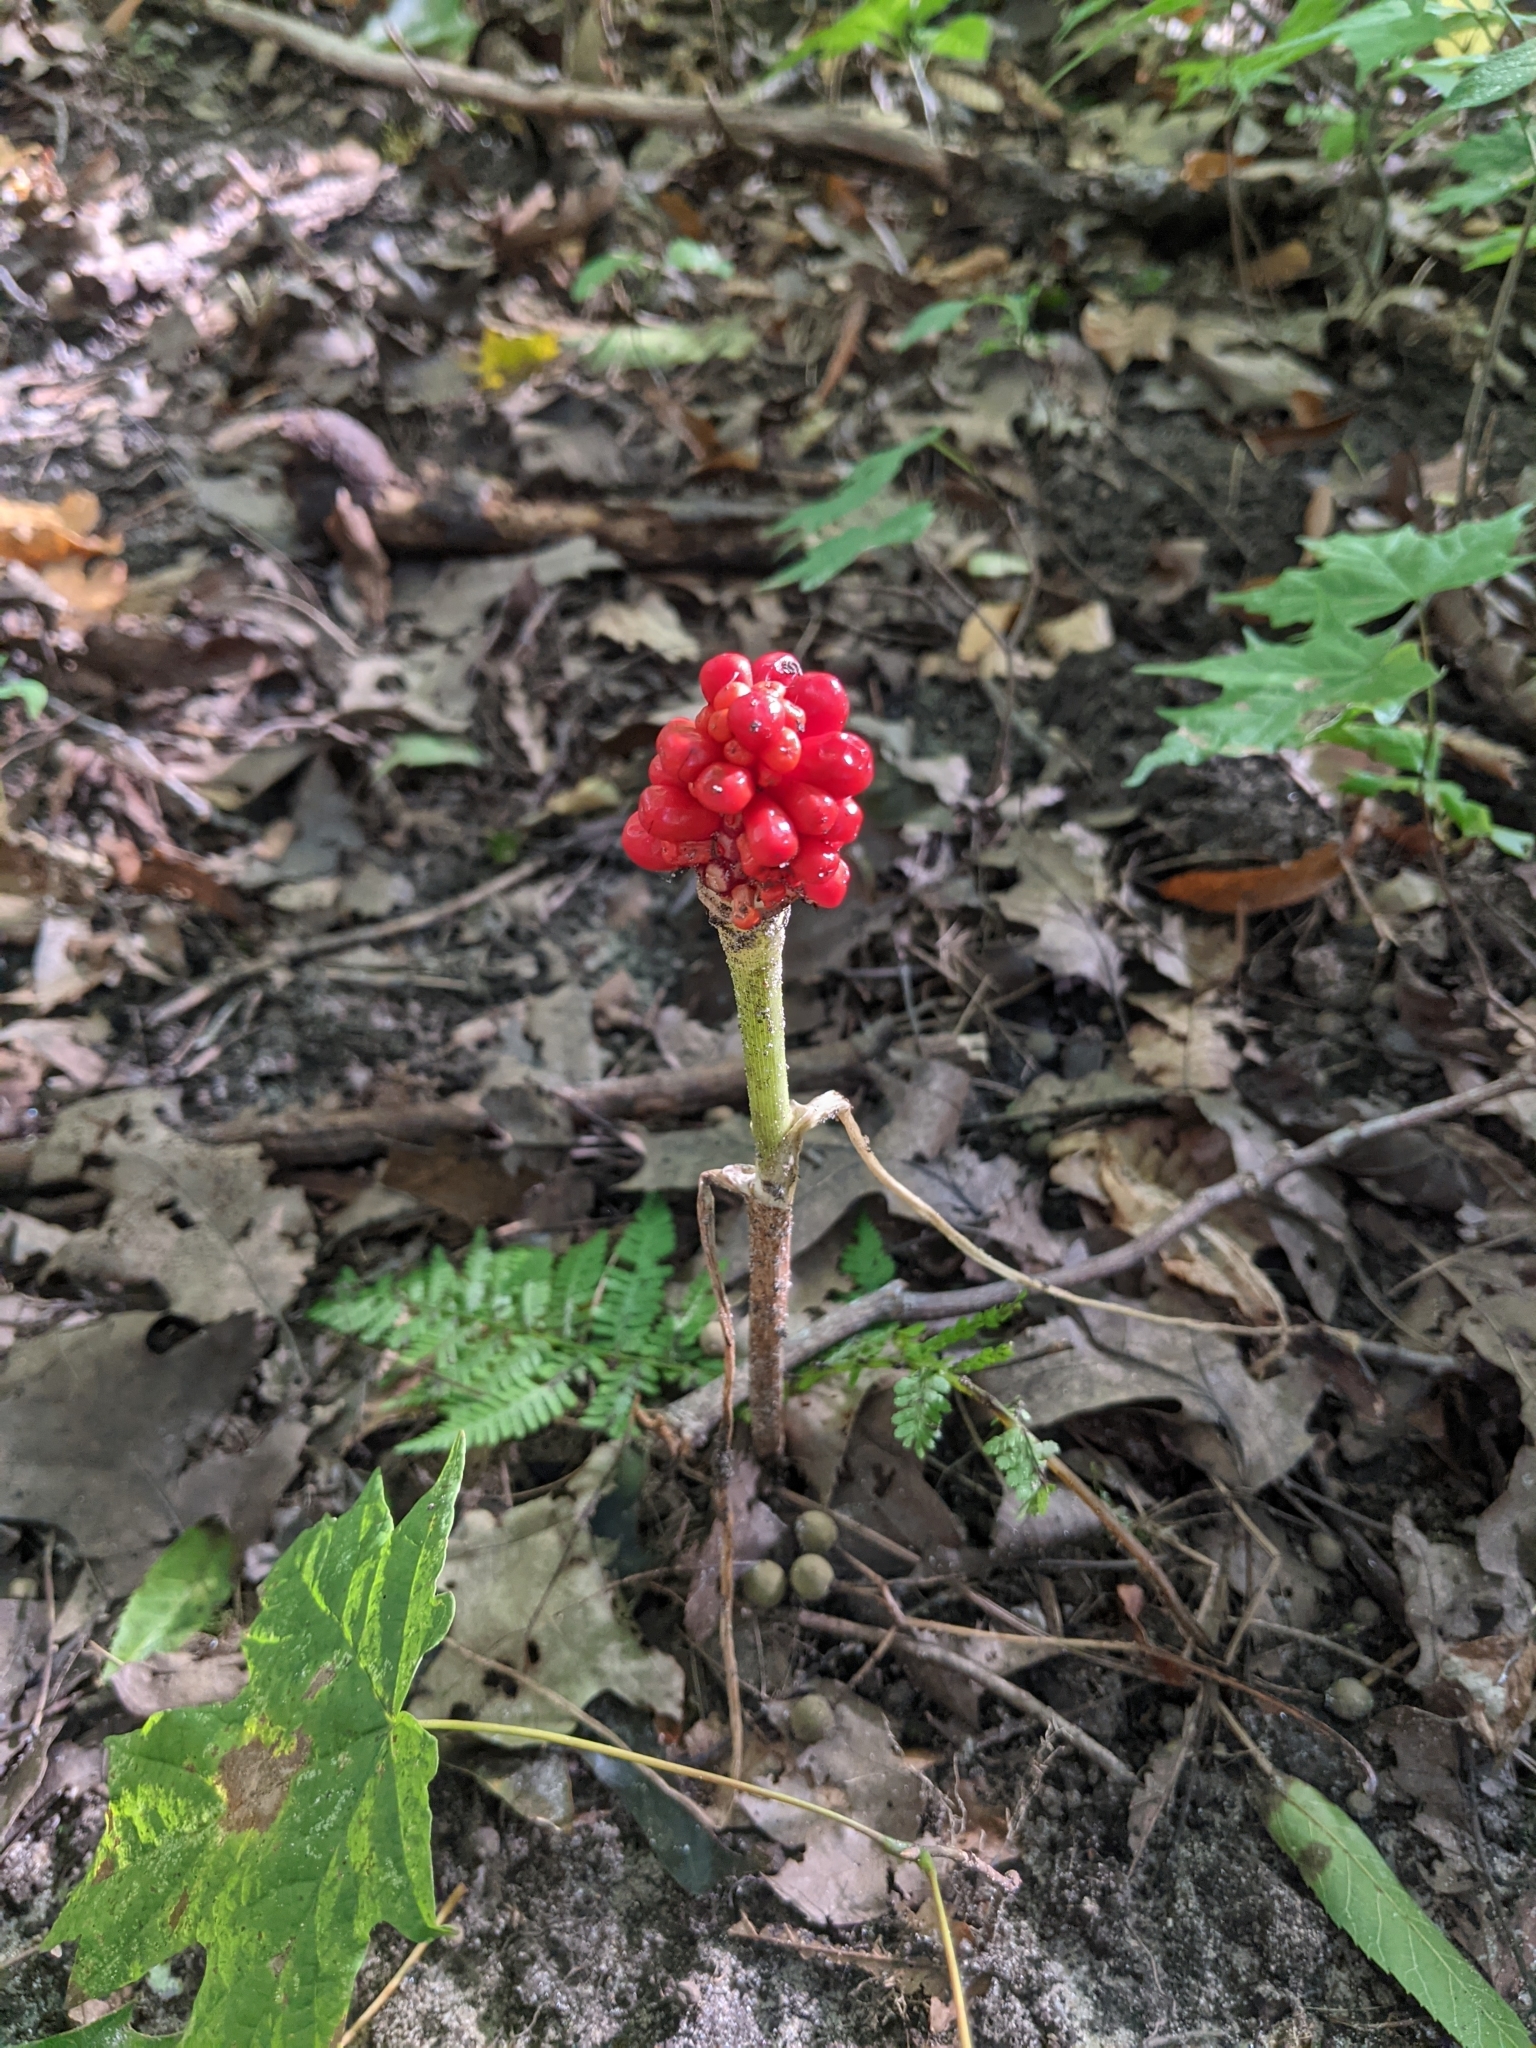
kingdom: Plantae
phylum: Tracheophyta
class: Liliopsida
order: Alismatales
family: Araceae
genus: Arisaema
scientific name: Arisaema triphyllum
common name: Jack-in-the-pulpit
